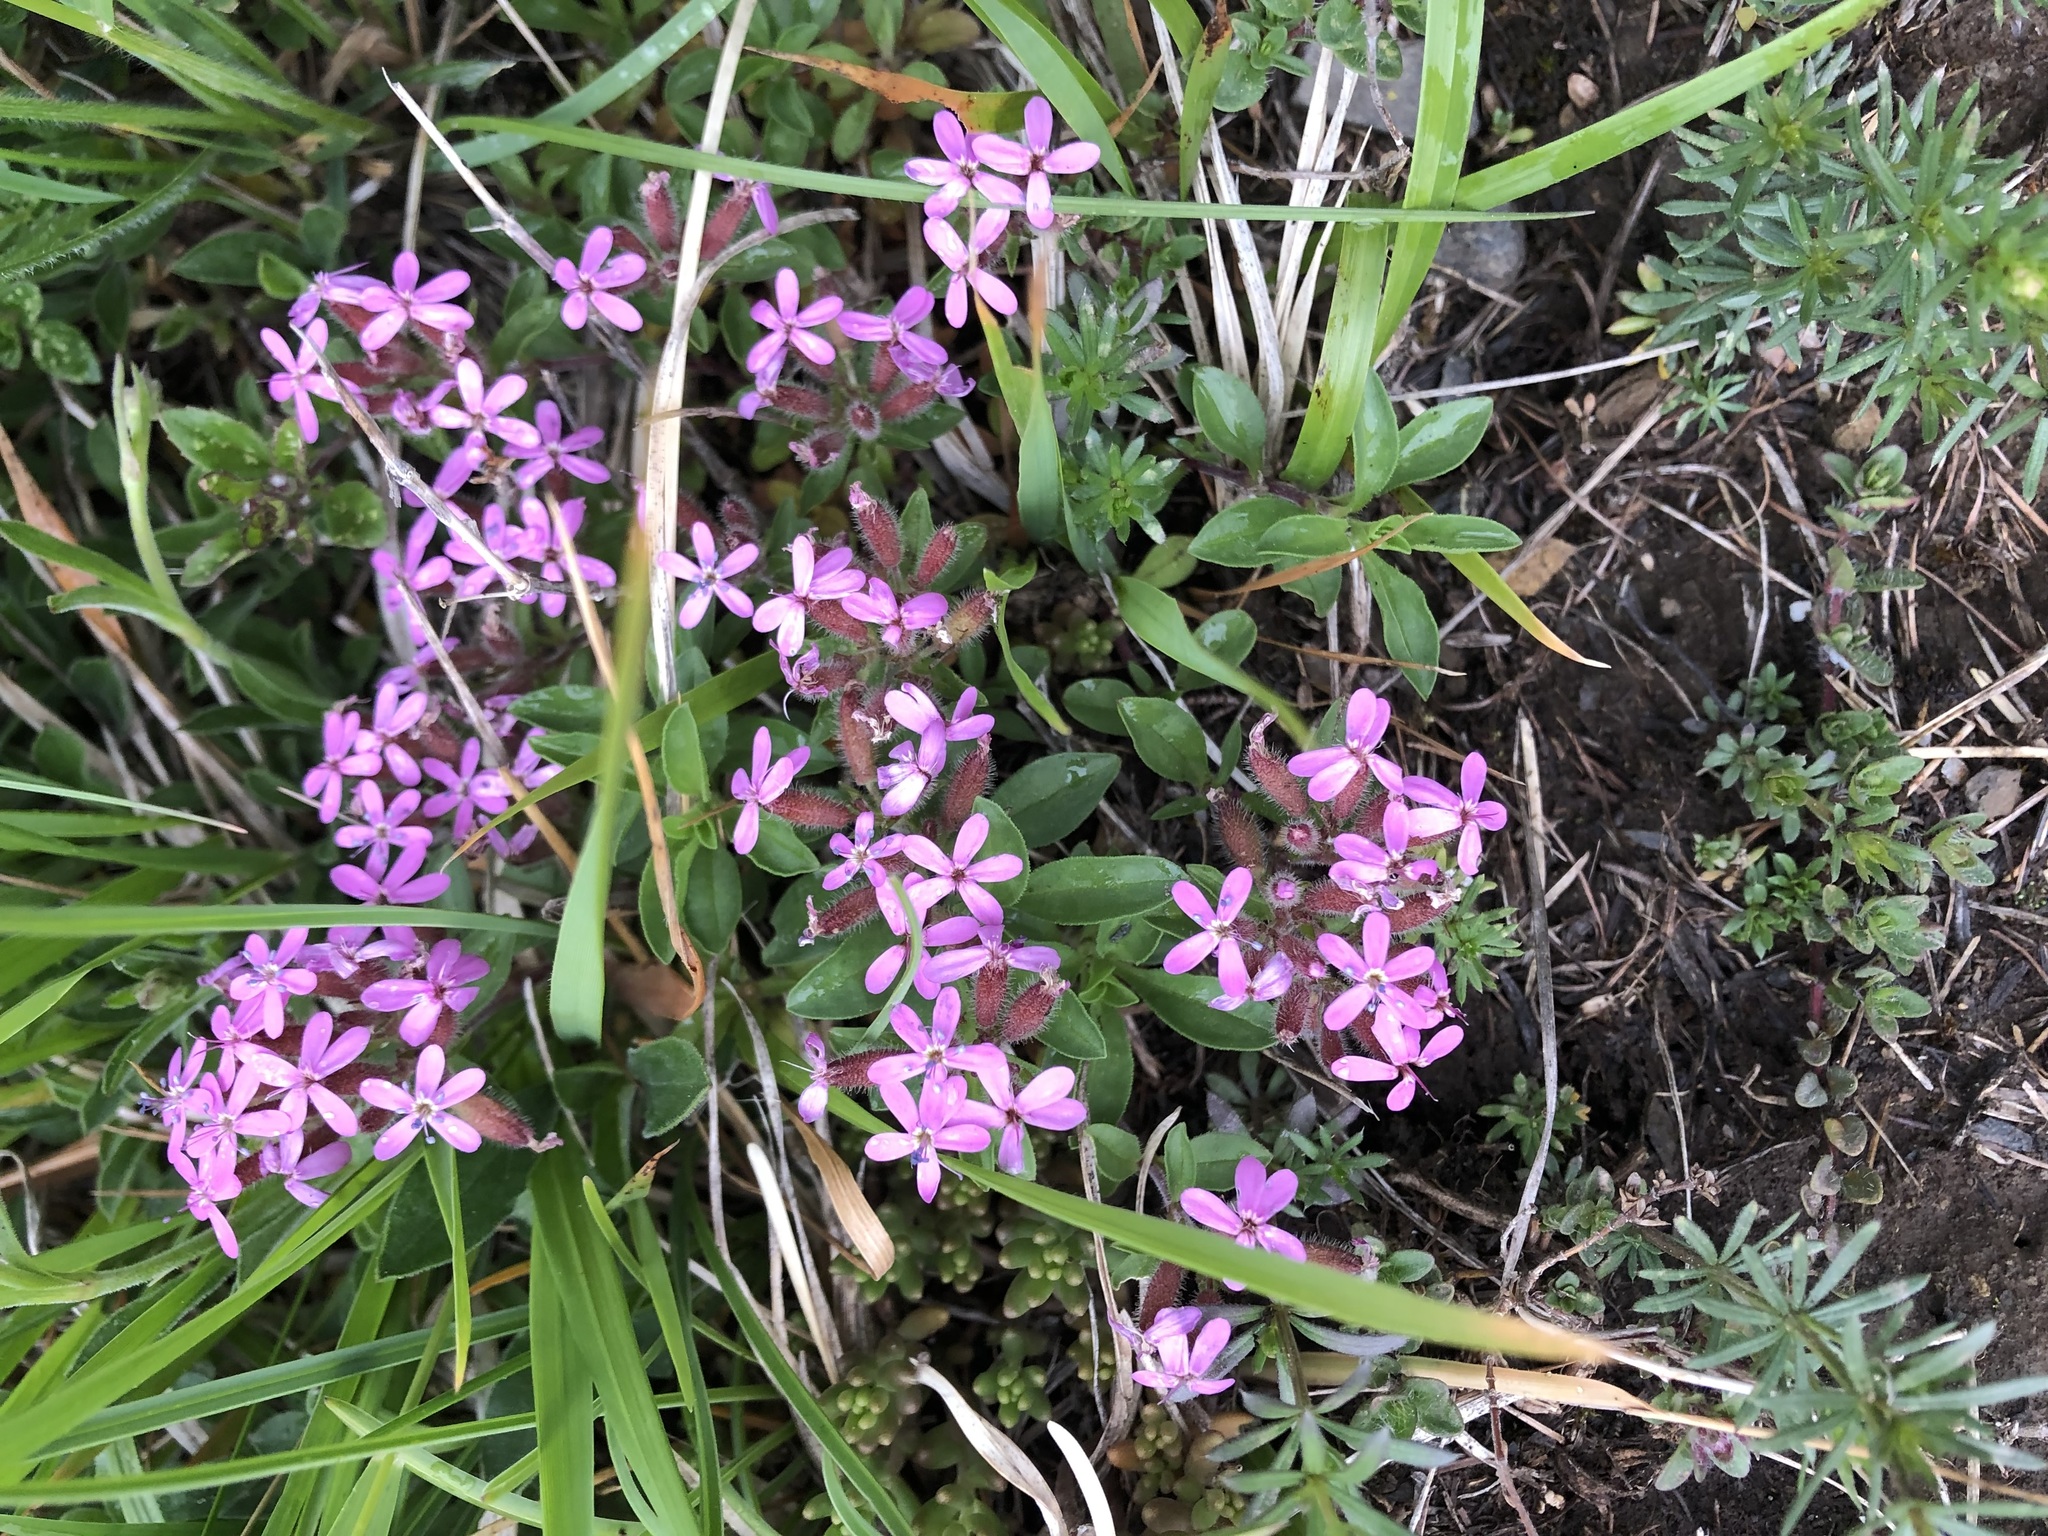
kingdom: Plantae
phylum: Tracheophyta
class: Magnoliopsida
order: Caryophyllales
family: Caryophyllaceae
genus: Saponaria
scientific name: Saponaria ocymoides
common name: Rock soapwort
